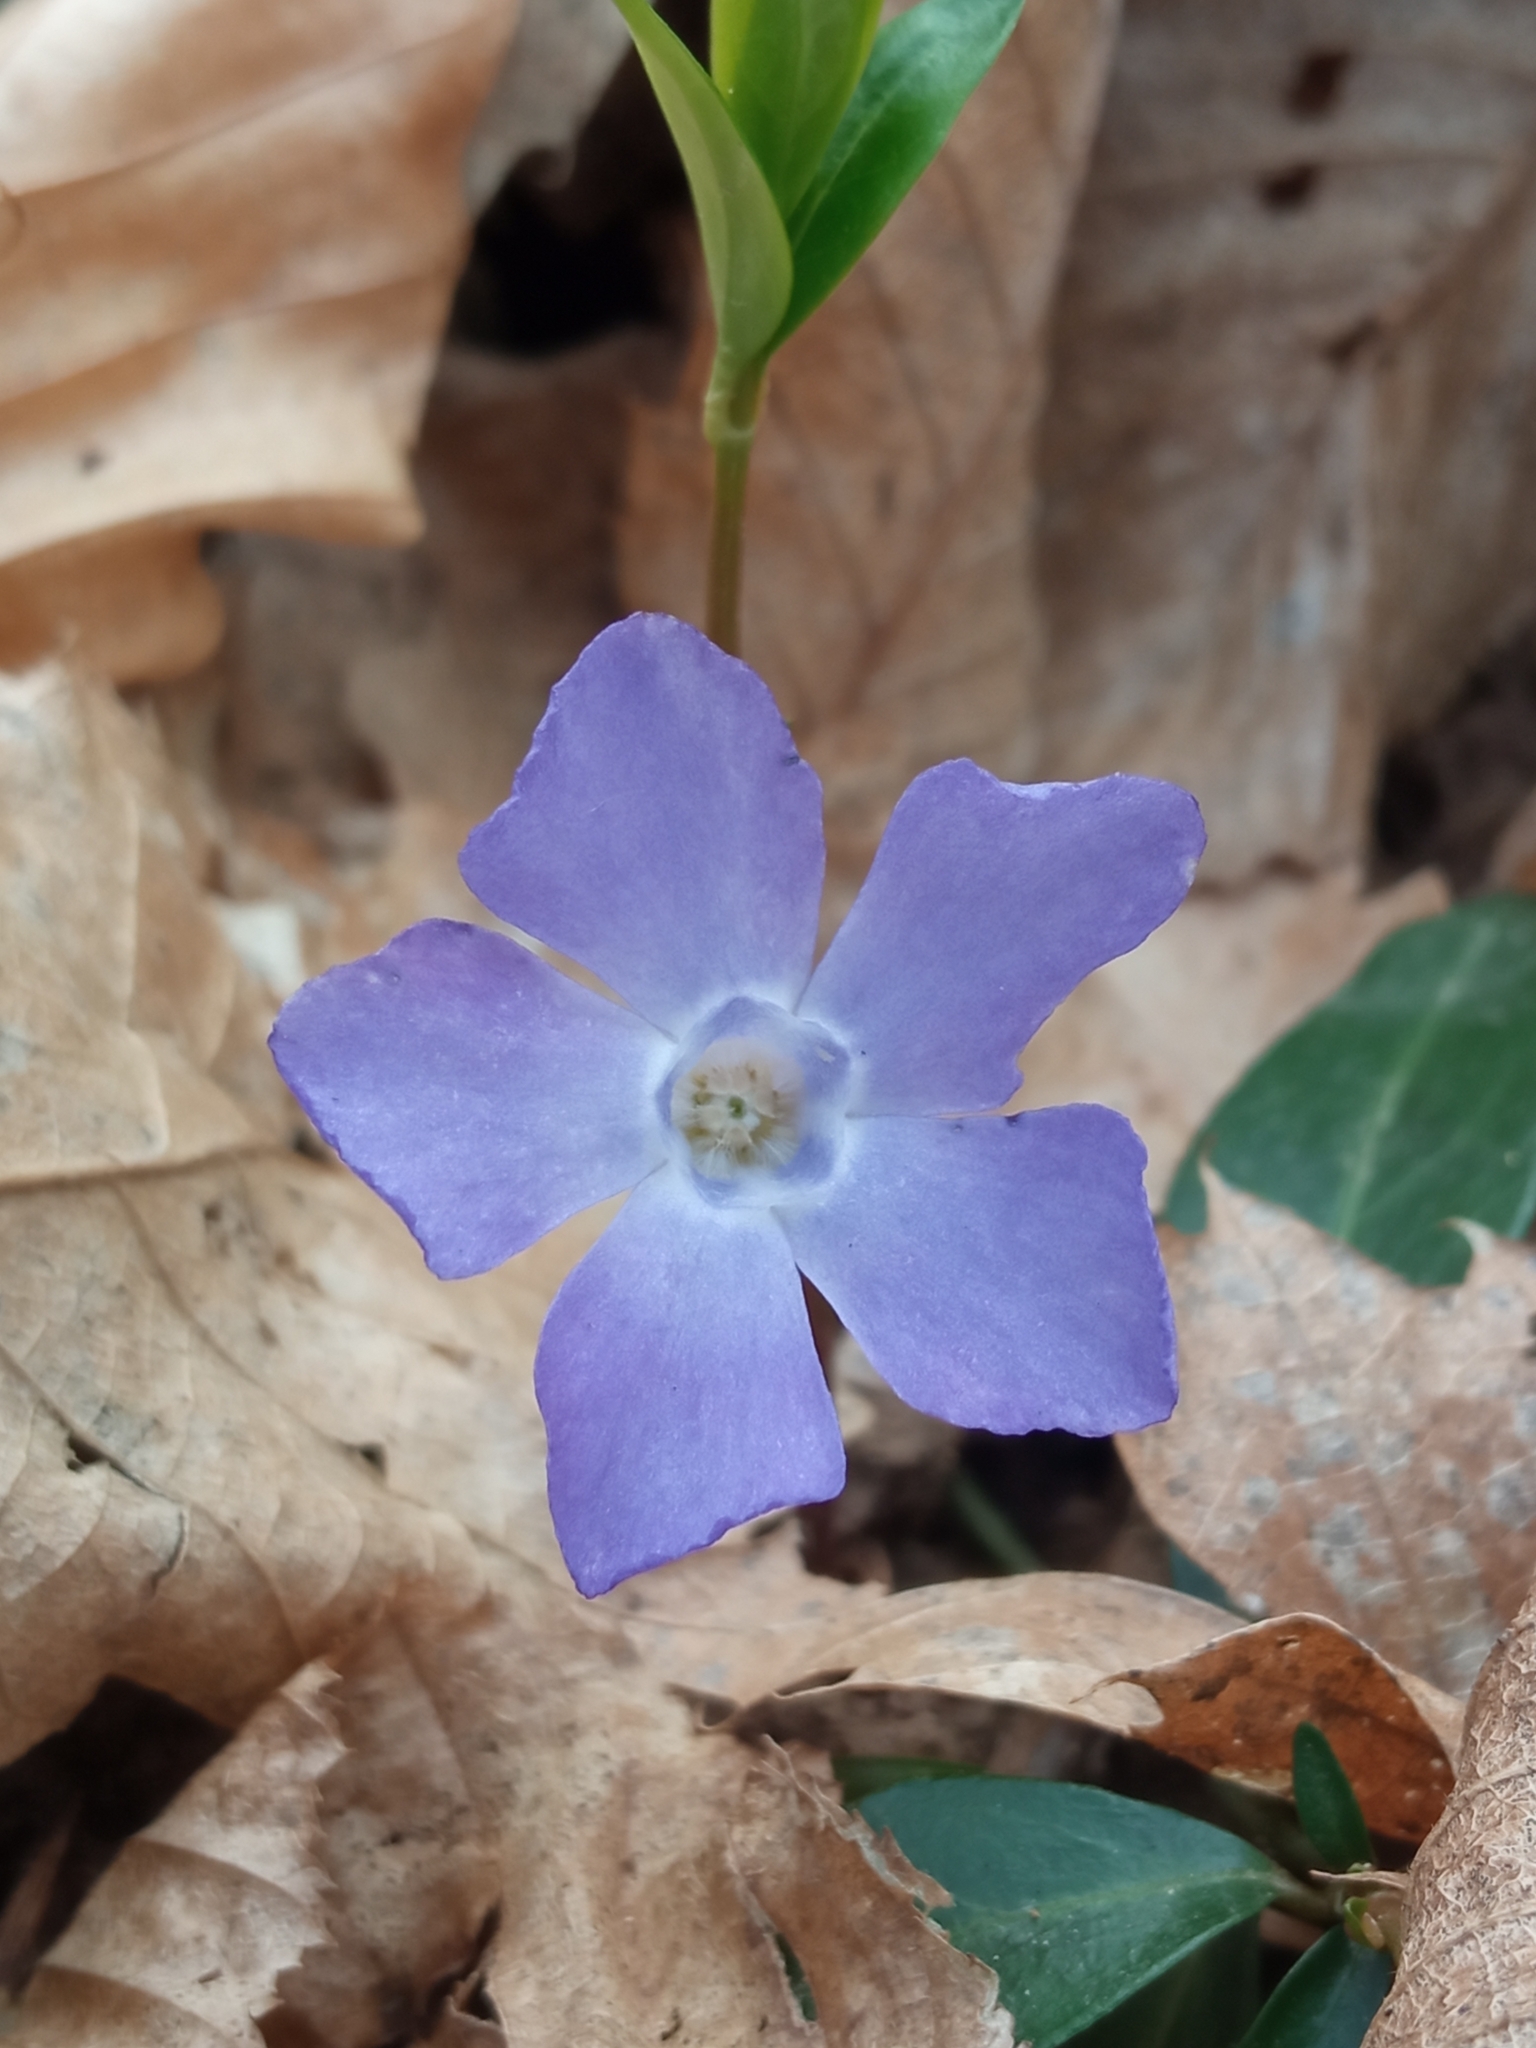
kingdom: Plantae
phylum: Tracheophyta
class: Magnoliopsida
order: Gentianales
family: Apocynaceae
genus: Vinca
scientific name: Vinca minor
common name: Lesser periwinkle
